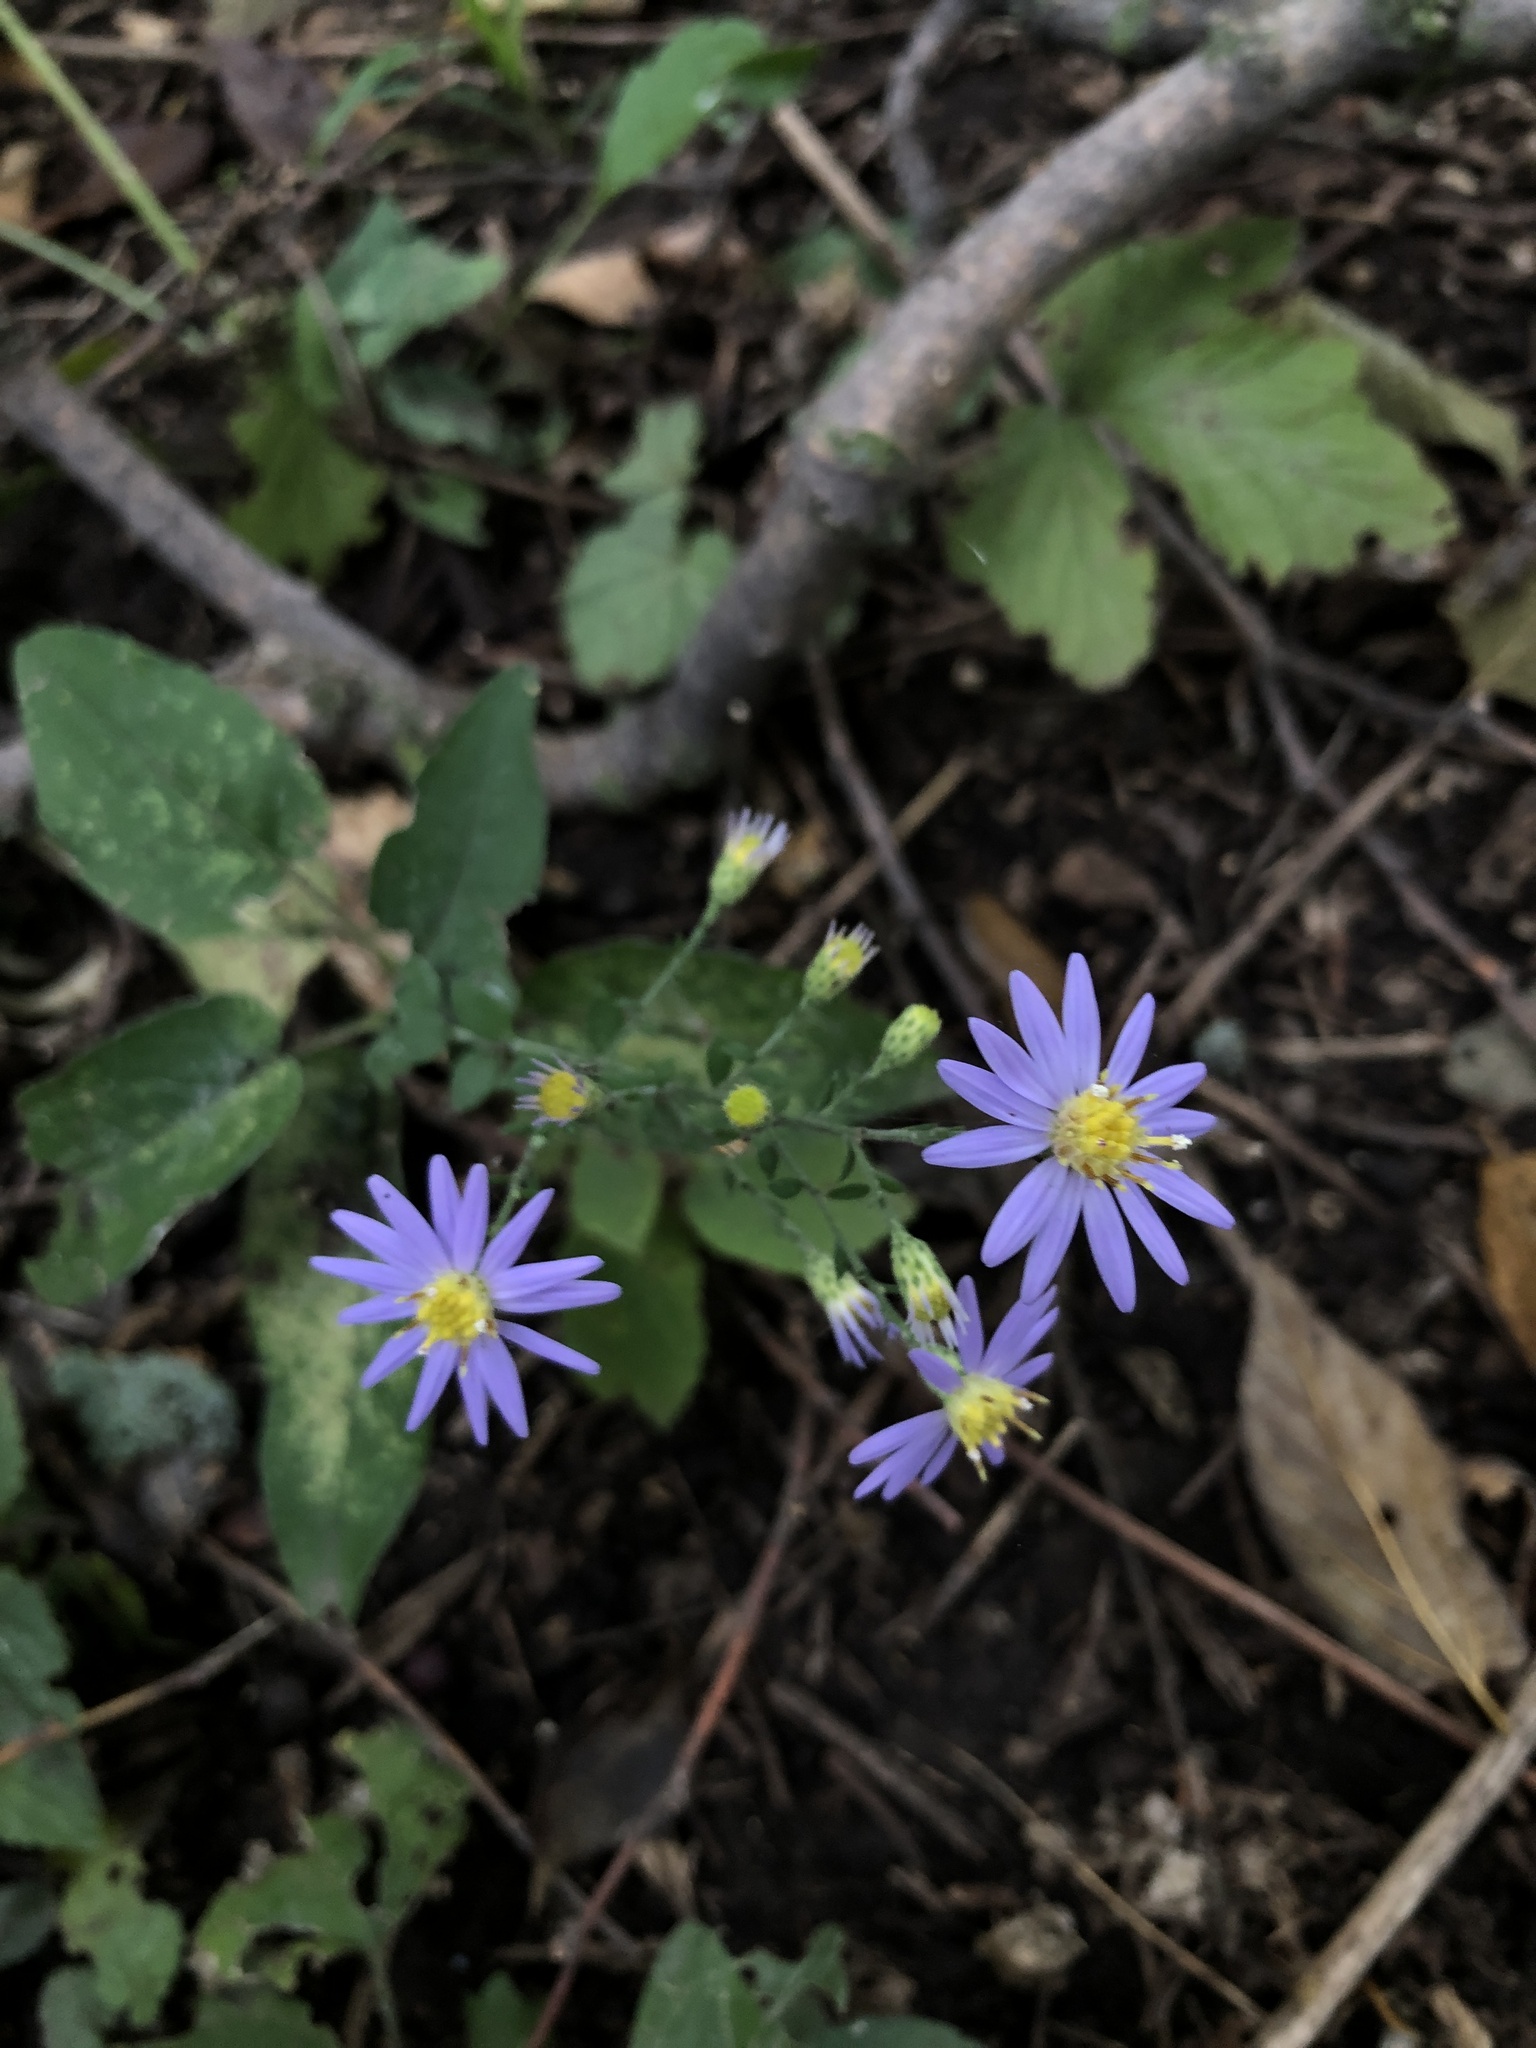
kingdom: Plantae
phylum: Tracheophyta
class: Magnoliopsida
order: Asterales
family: Asteraceae
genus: Symphyotrichum
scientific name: Symphyotrichum shortii
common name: Short's aster
